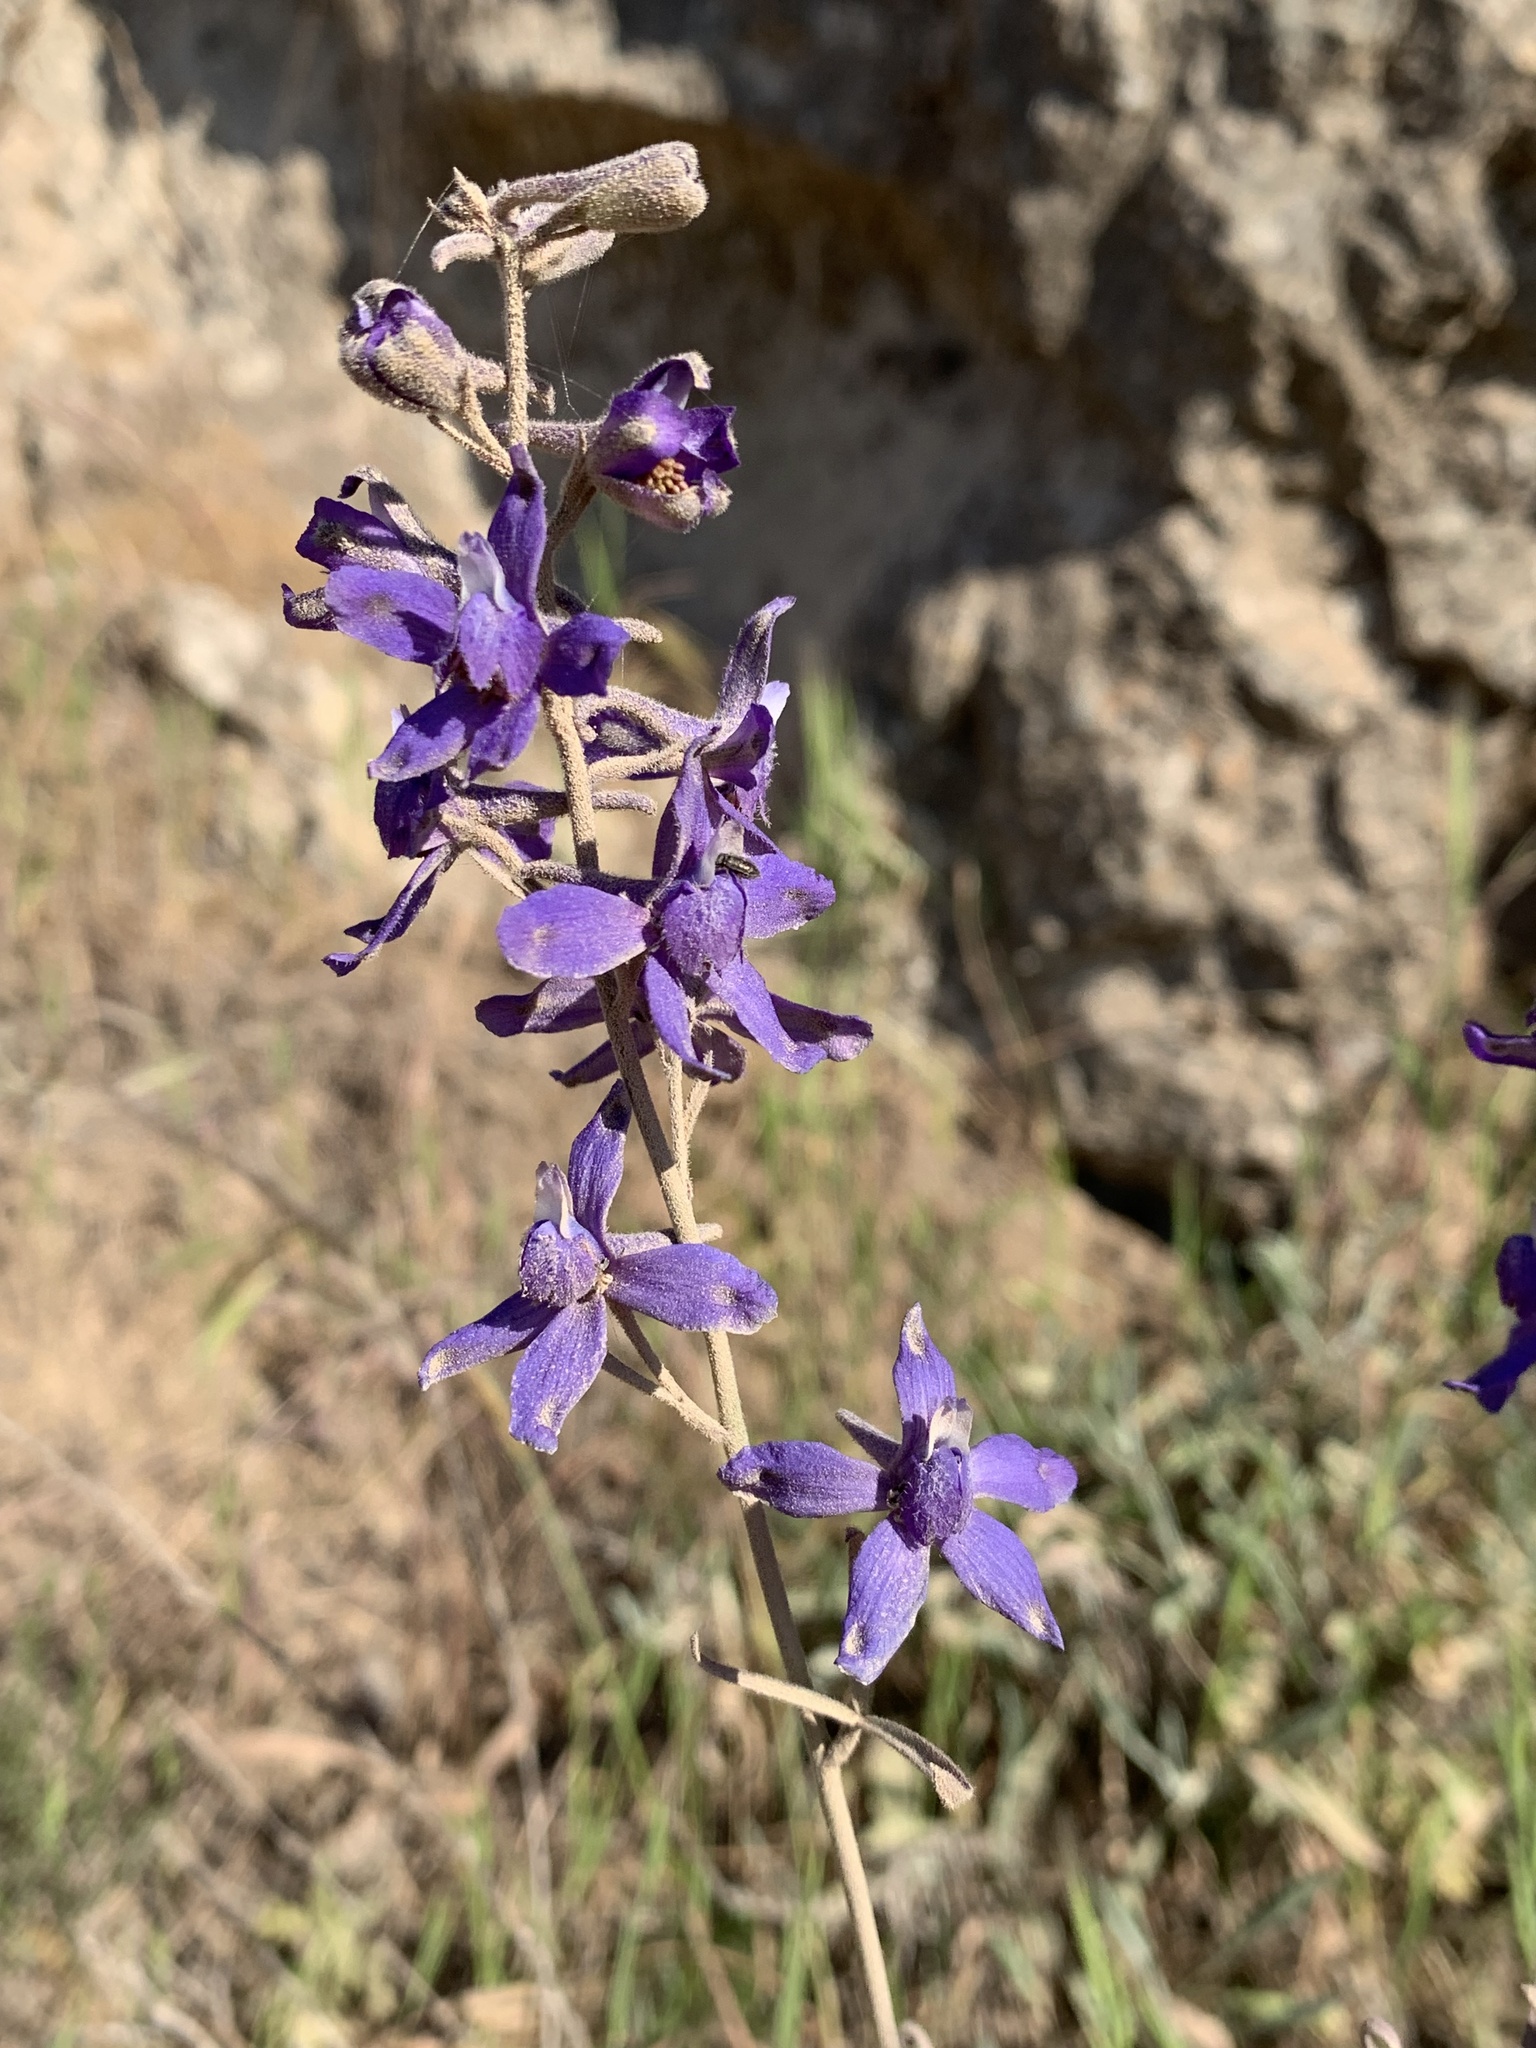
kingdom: Plantae
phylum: Tracheophyta
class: Magnoliopsida
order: Ranunculales
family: Ranunculaceae
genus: Delphinium
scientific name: Delphinium parryi
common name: Parry's larkspur
